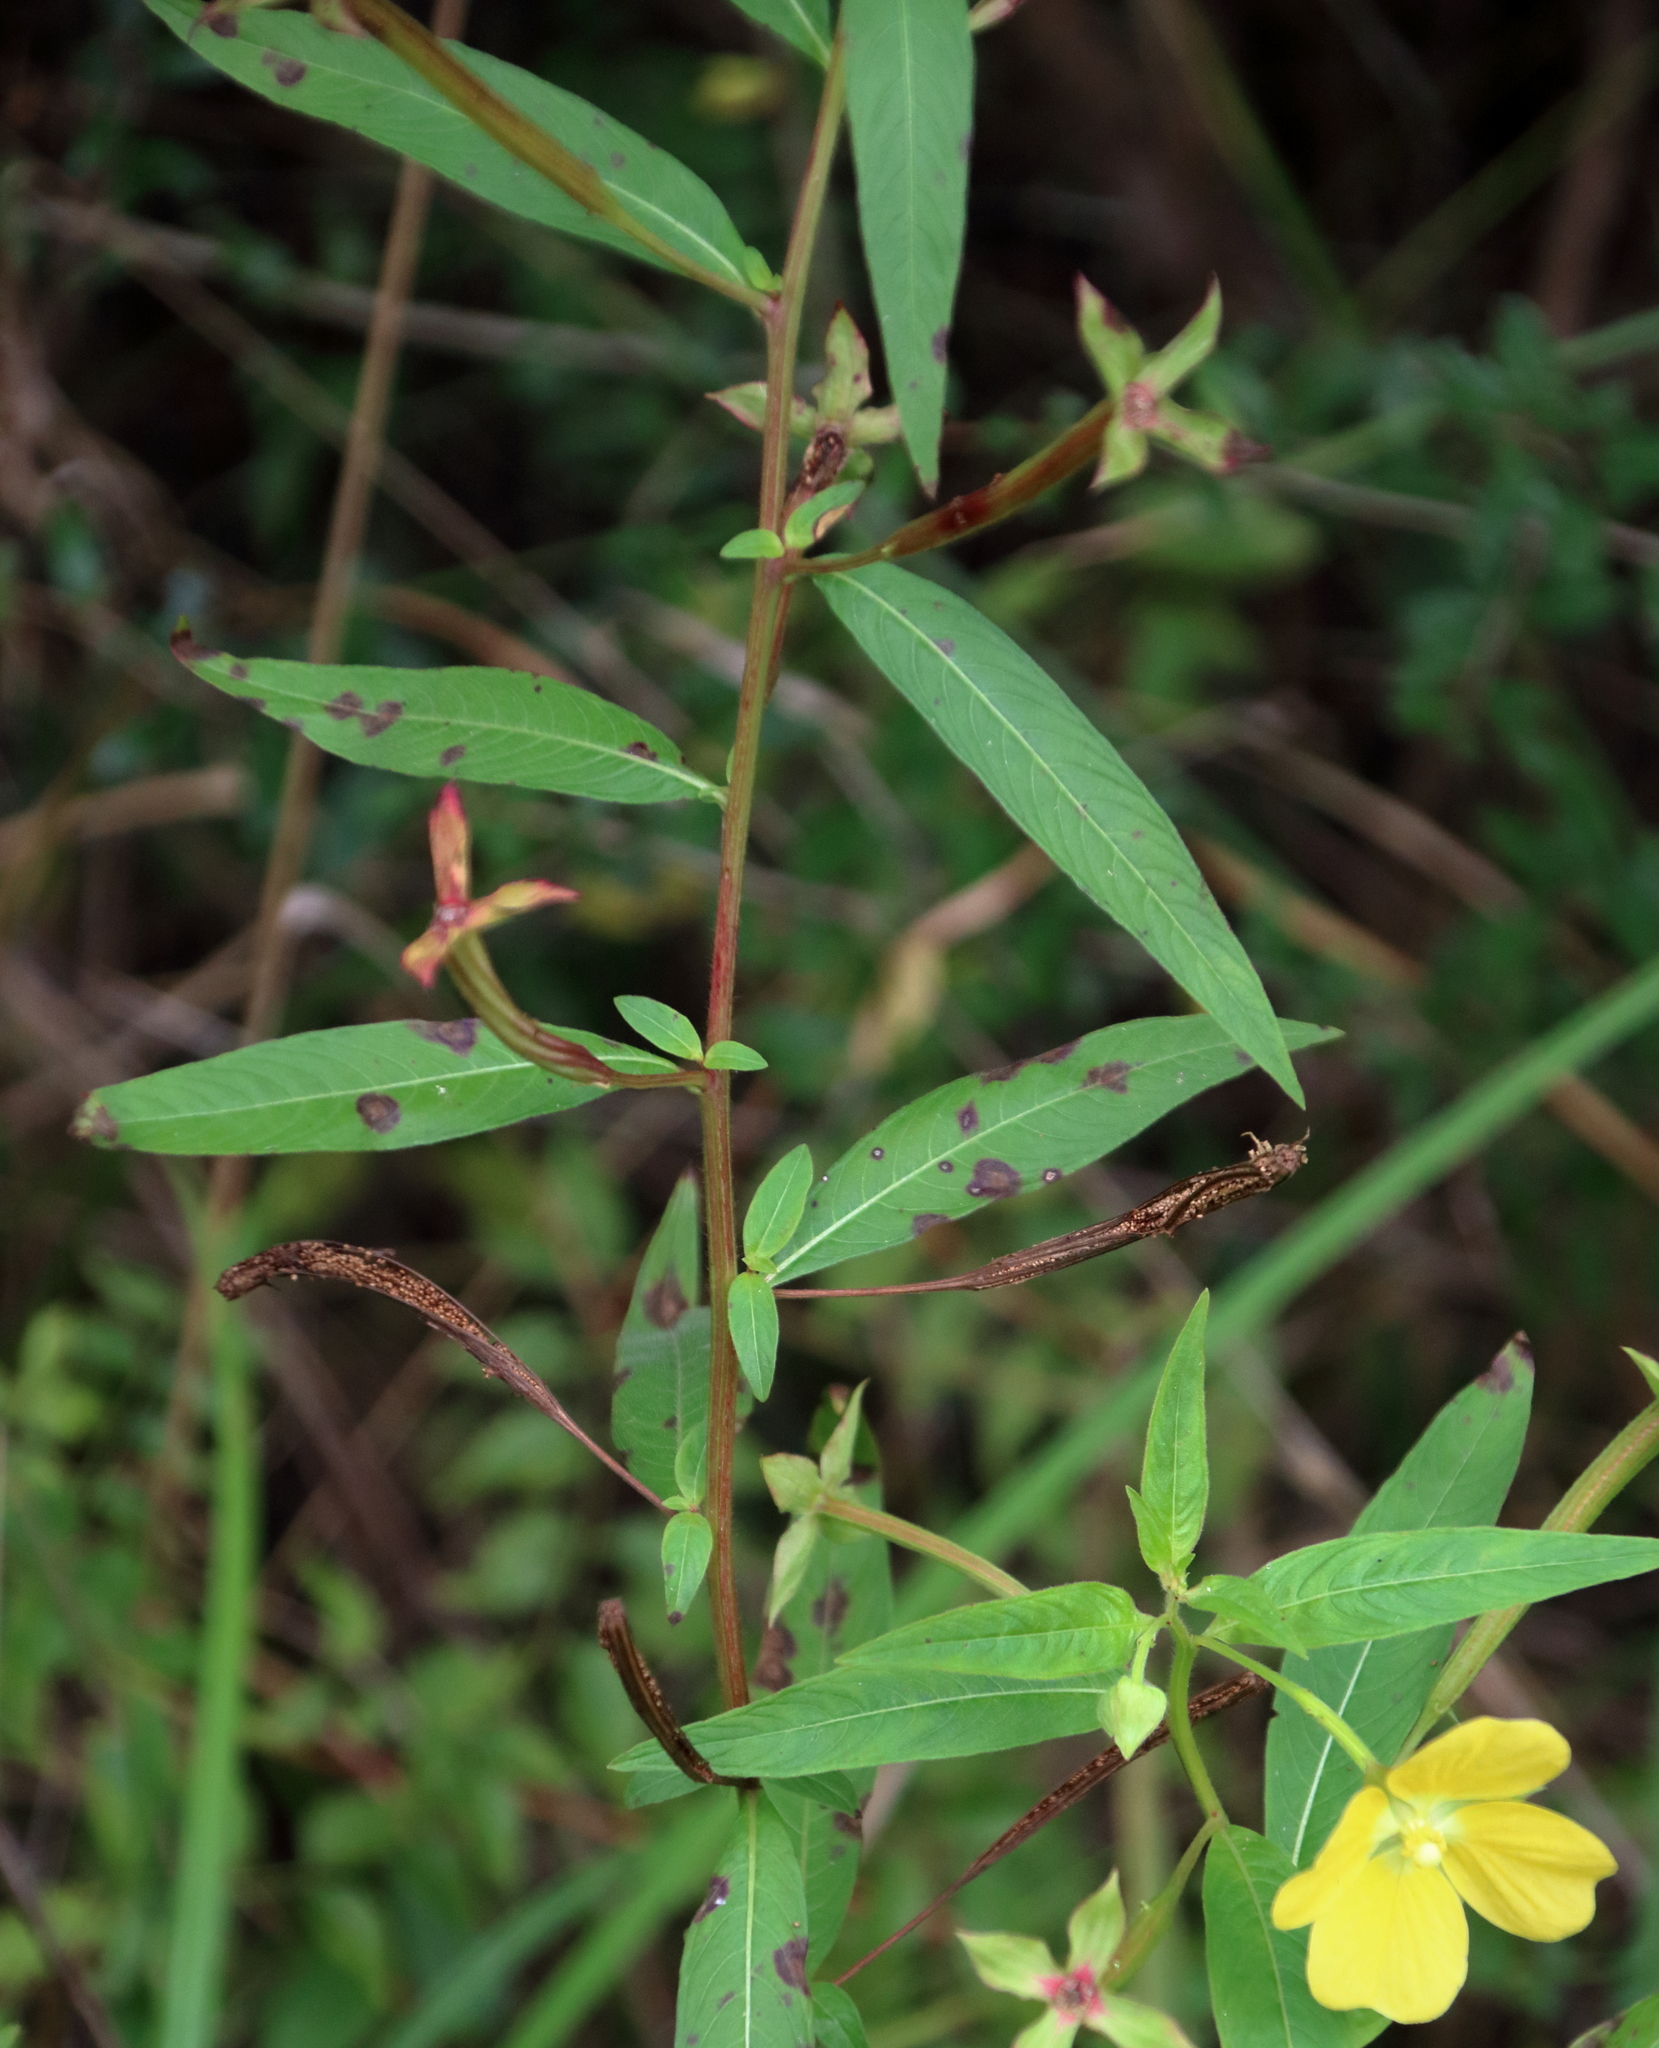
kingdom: Plantae
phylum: Tracheophyta
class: Magnoliopsida
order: Myrtales
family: Onagraceae
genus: Ludwigia
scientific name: Ludwigia octovalvis
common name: Water-primrose
